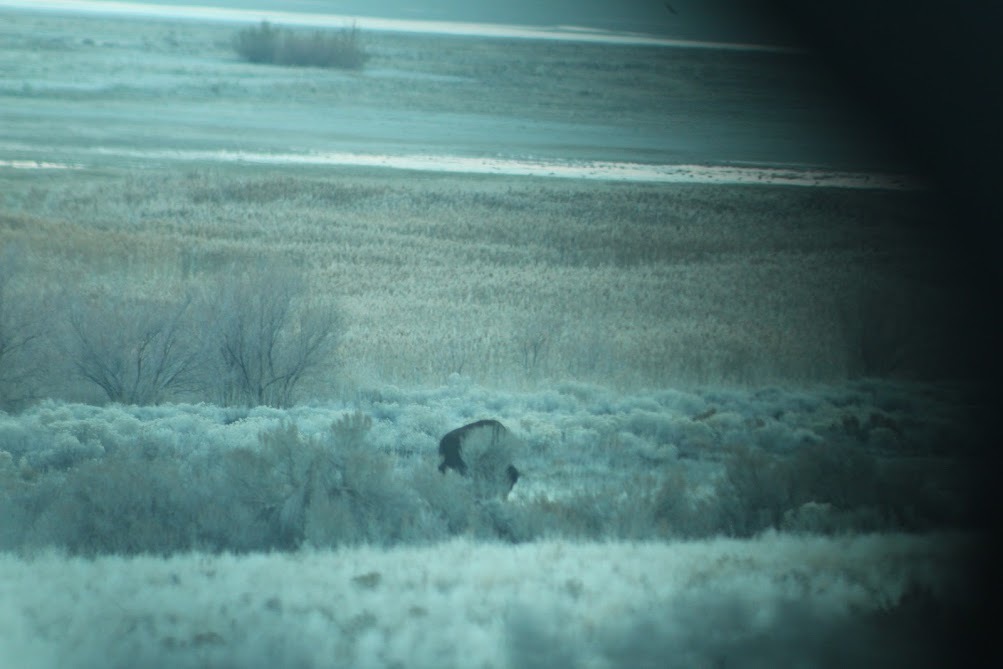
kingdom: Animalia
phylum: Chordata
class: Mammalia
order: Artiodactyla
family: Bovidae
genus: Bison
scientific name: Bison bison
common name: American bison
